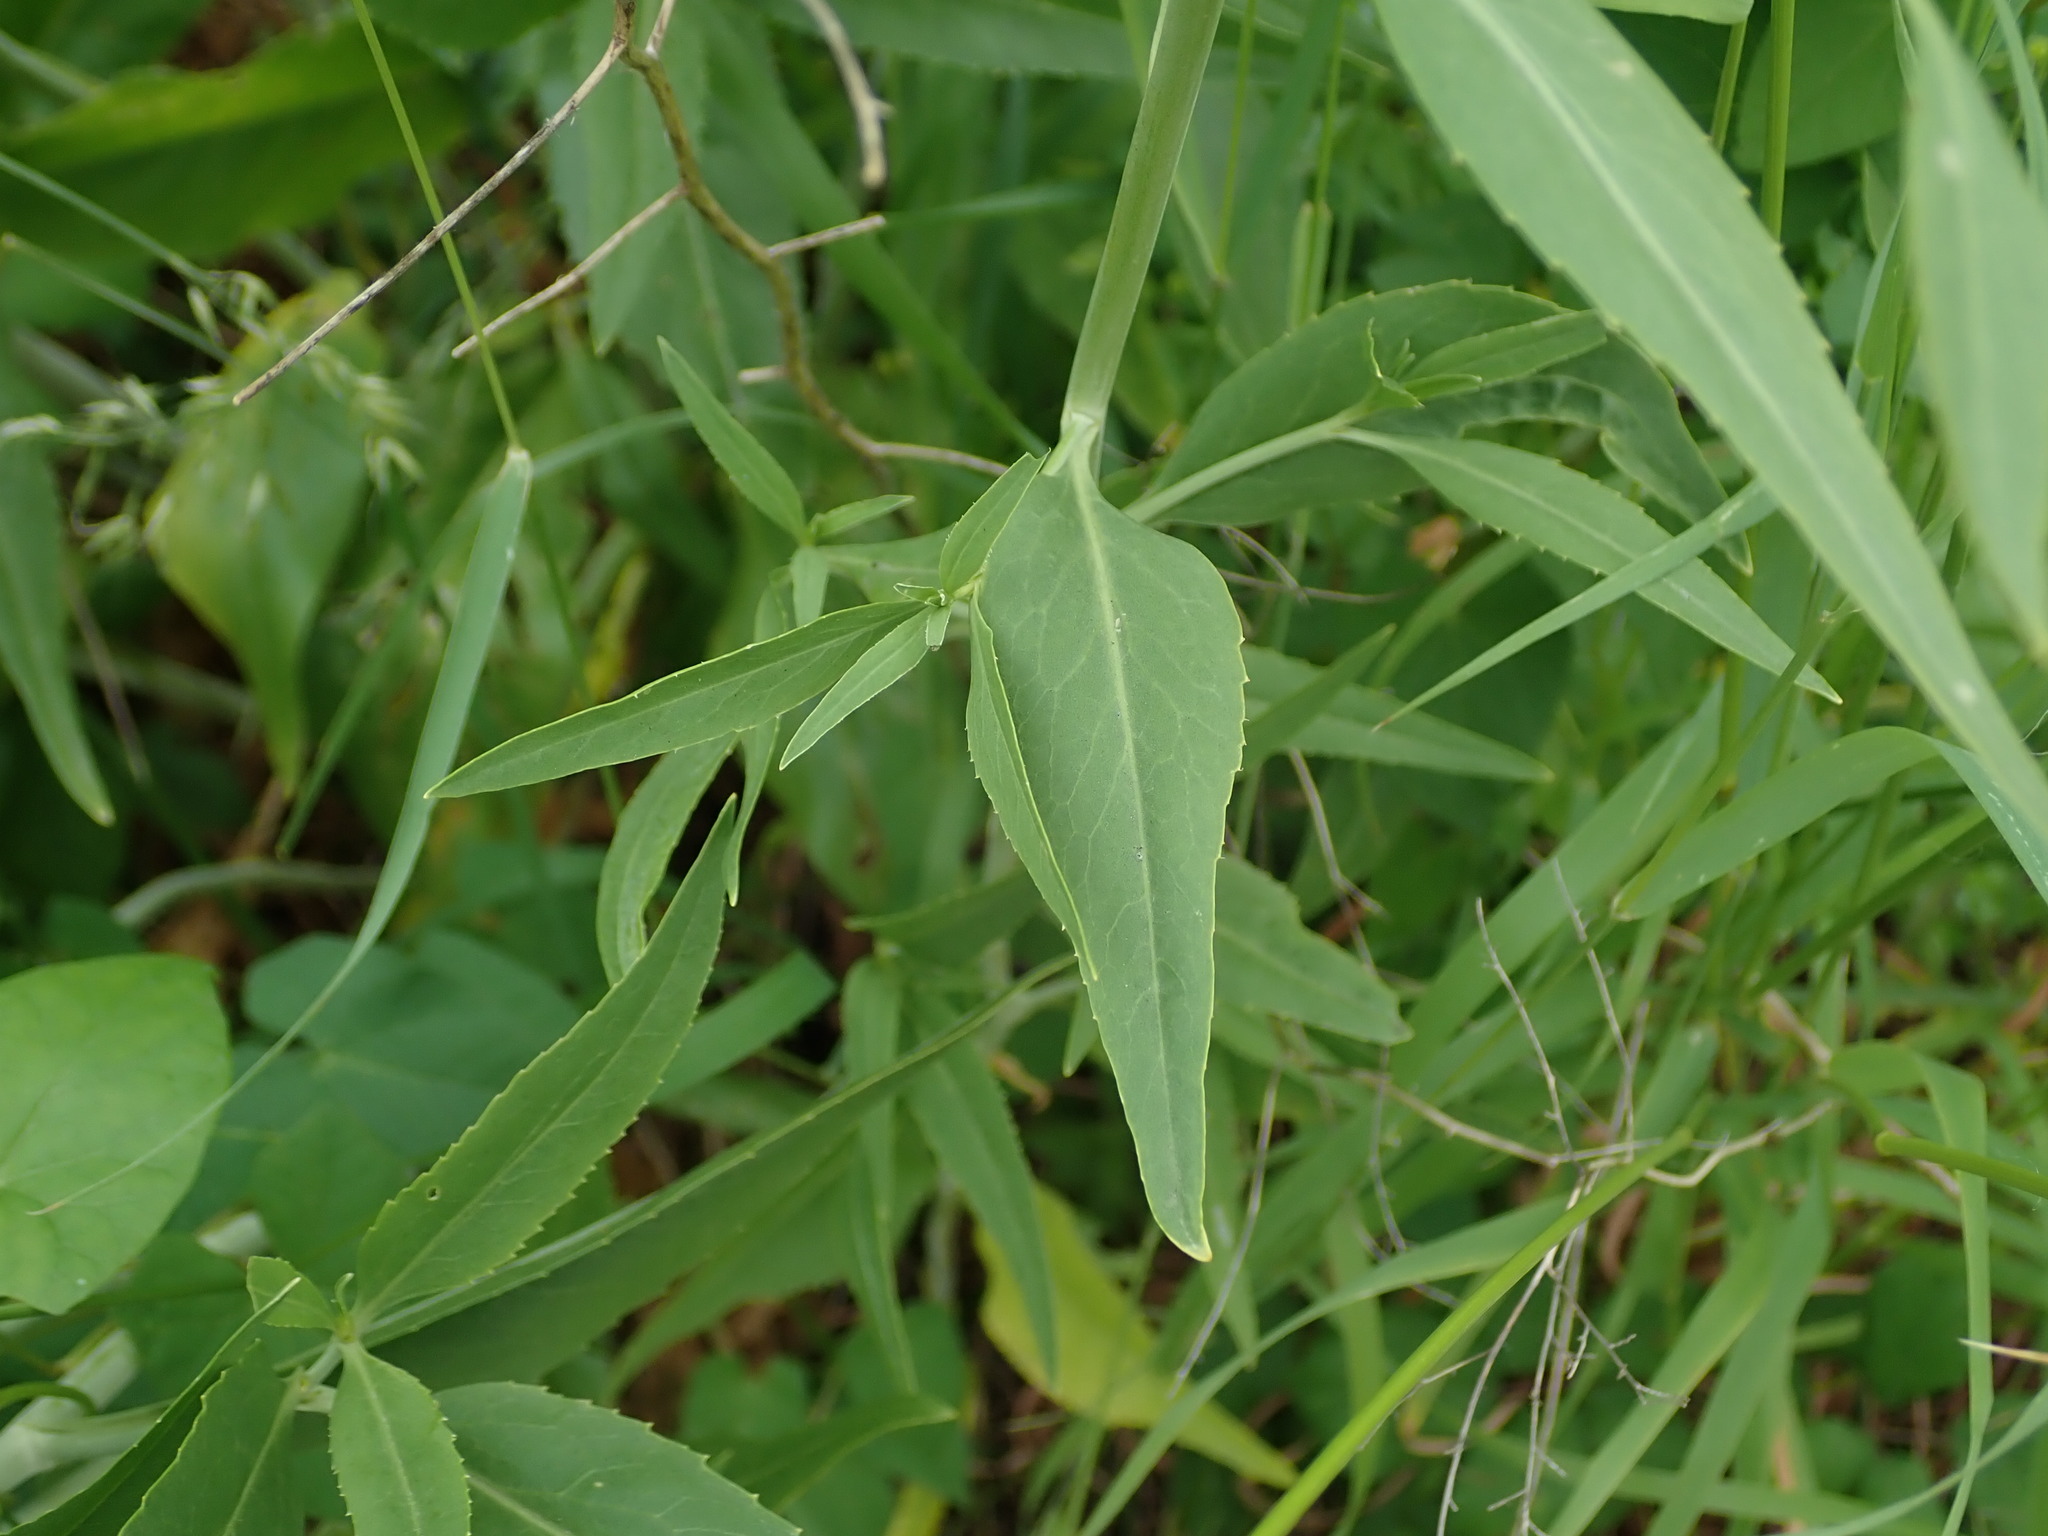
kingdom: Plantae
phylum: Tracheophyta
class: Magnoliopsida
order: Brassicales
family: Brassicaceae
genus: Lepidium
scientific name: Lepidium latifolium
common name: Dittander
